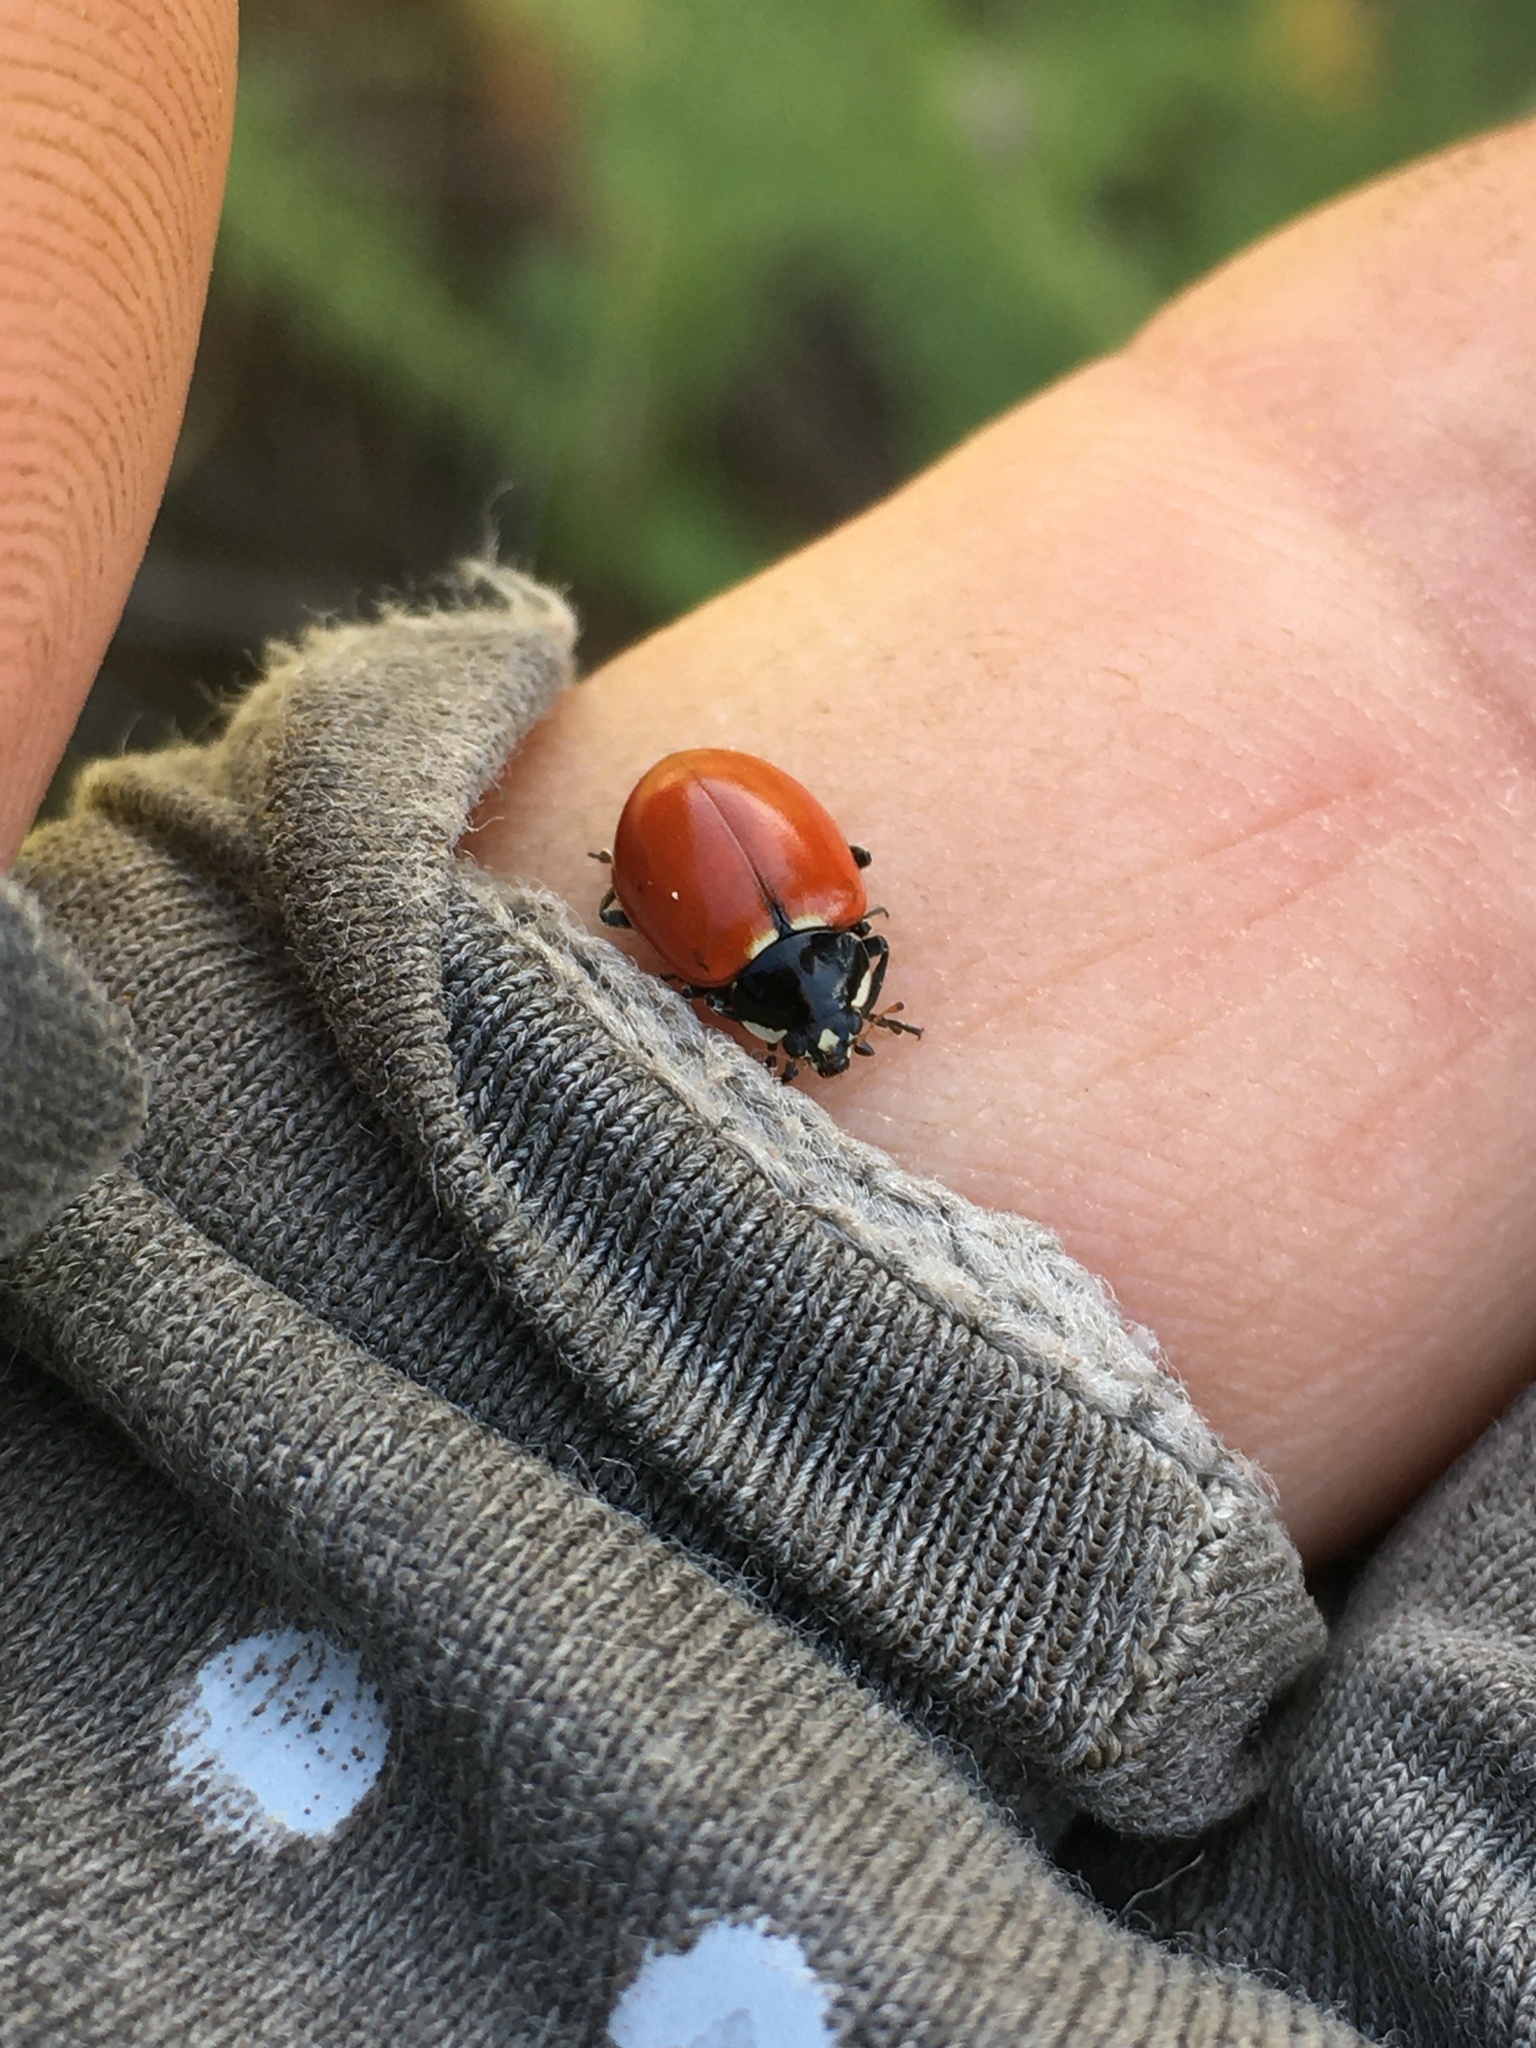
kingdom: Animalia
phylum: Arthropoda
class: Insecta
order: Coleoptera
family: Coccinellidae
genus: Hippodamia
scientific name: Hippodamia quinquesignata
